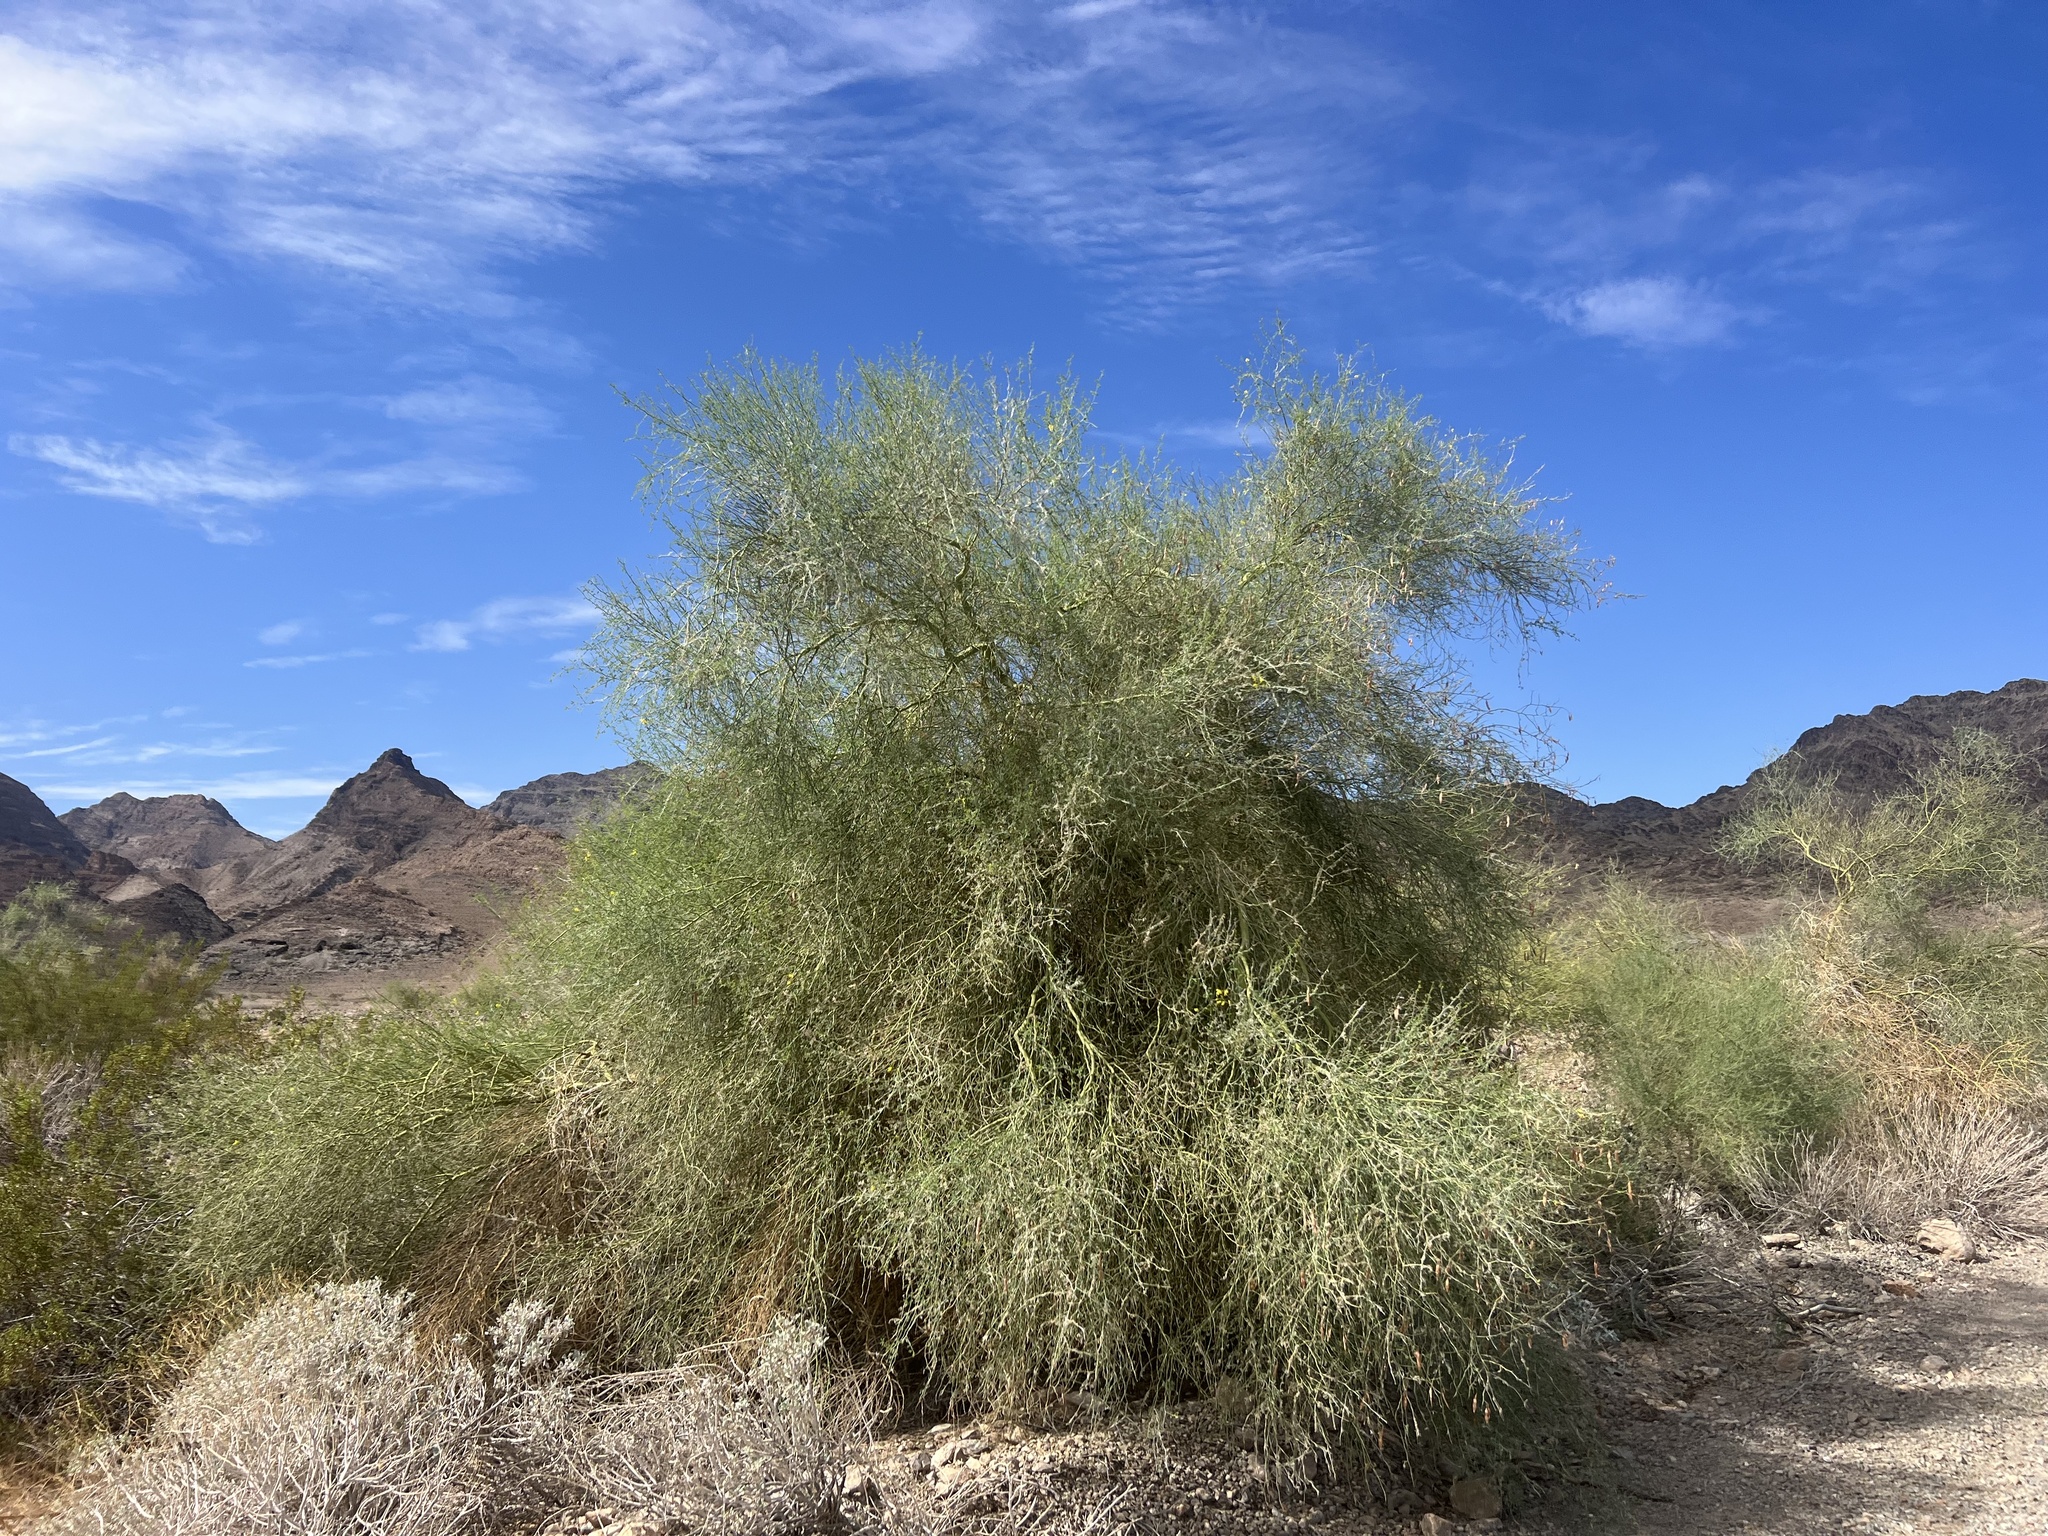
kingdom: Plantae
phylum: Tracheophyta
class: Magnoliopsida
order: Fabales
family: Fabaceae
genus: Parkinsonia
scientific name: Parkinsonia florida
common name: Blue paloverde
